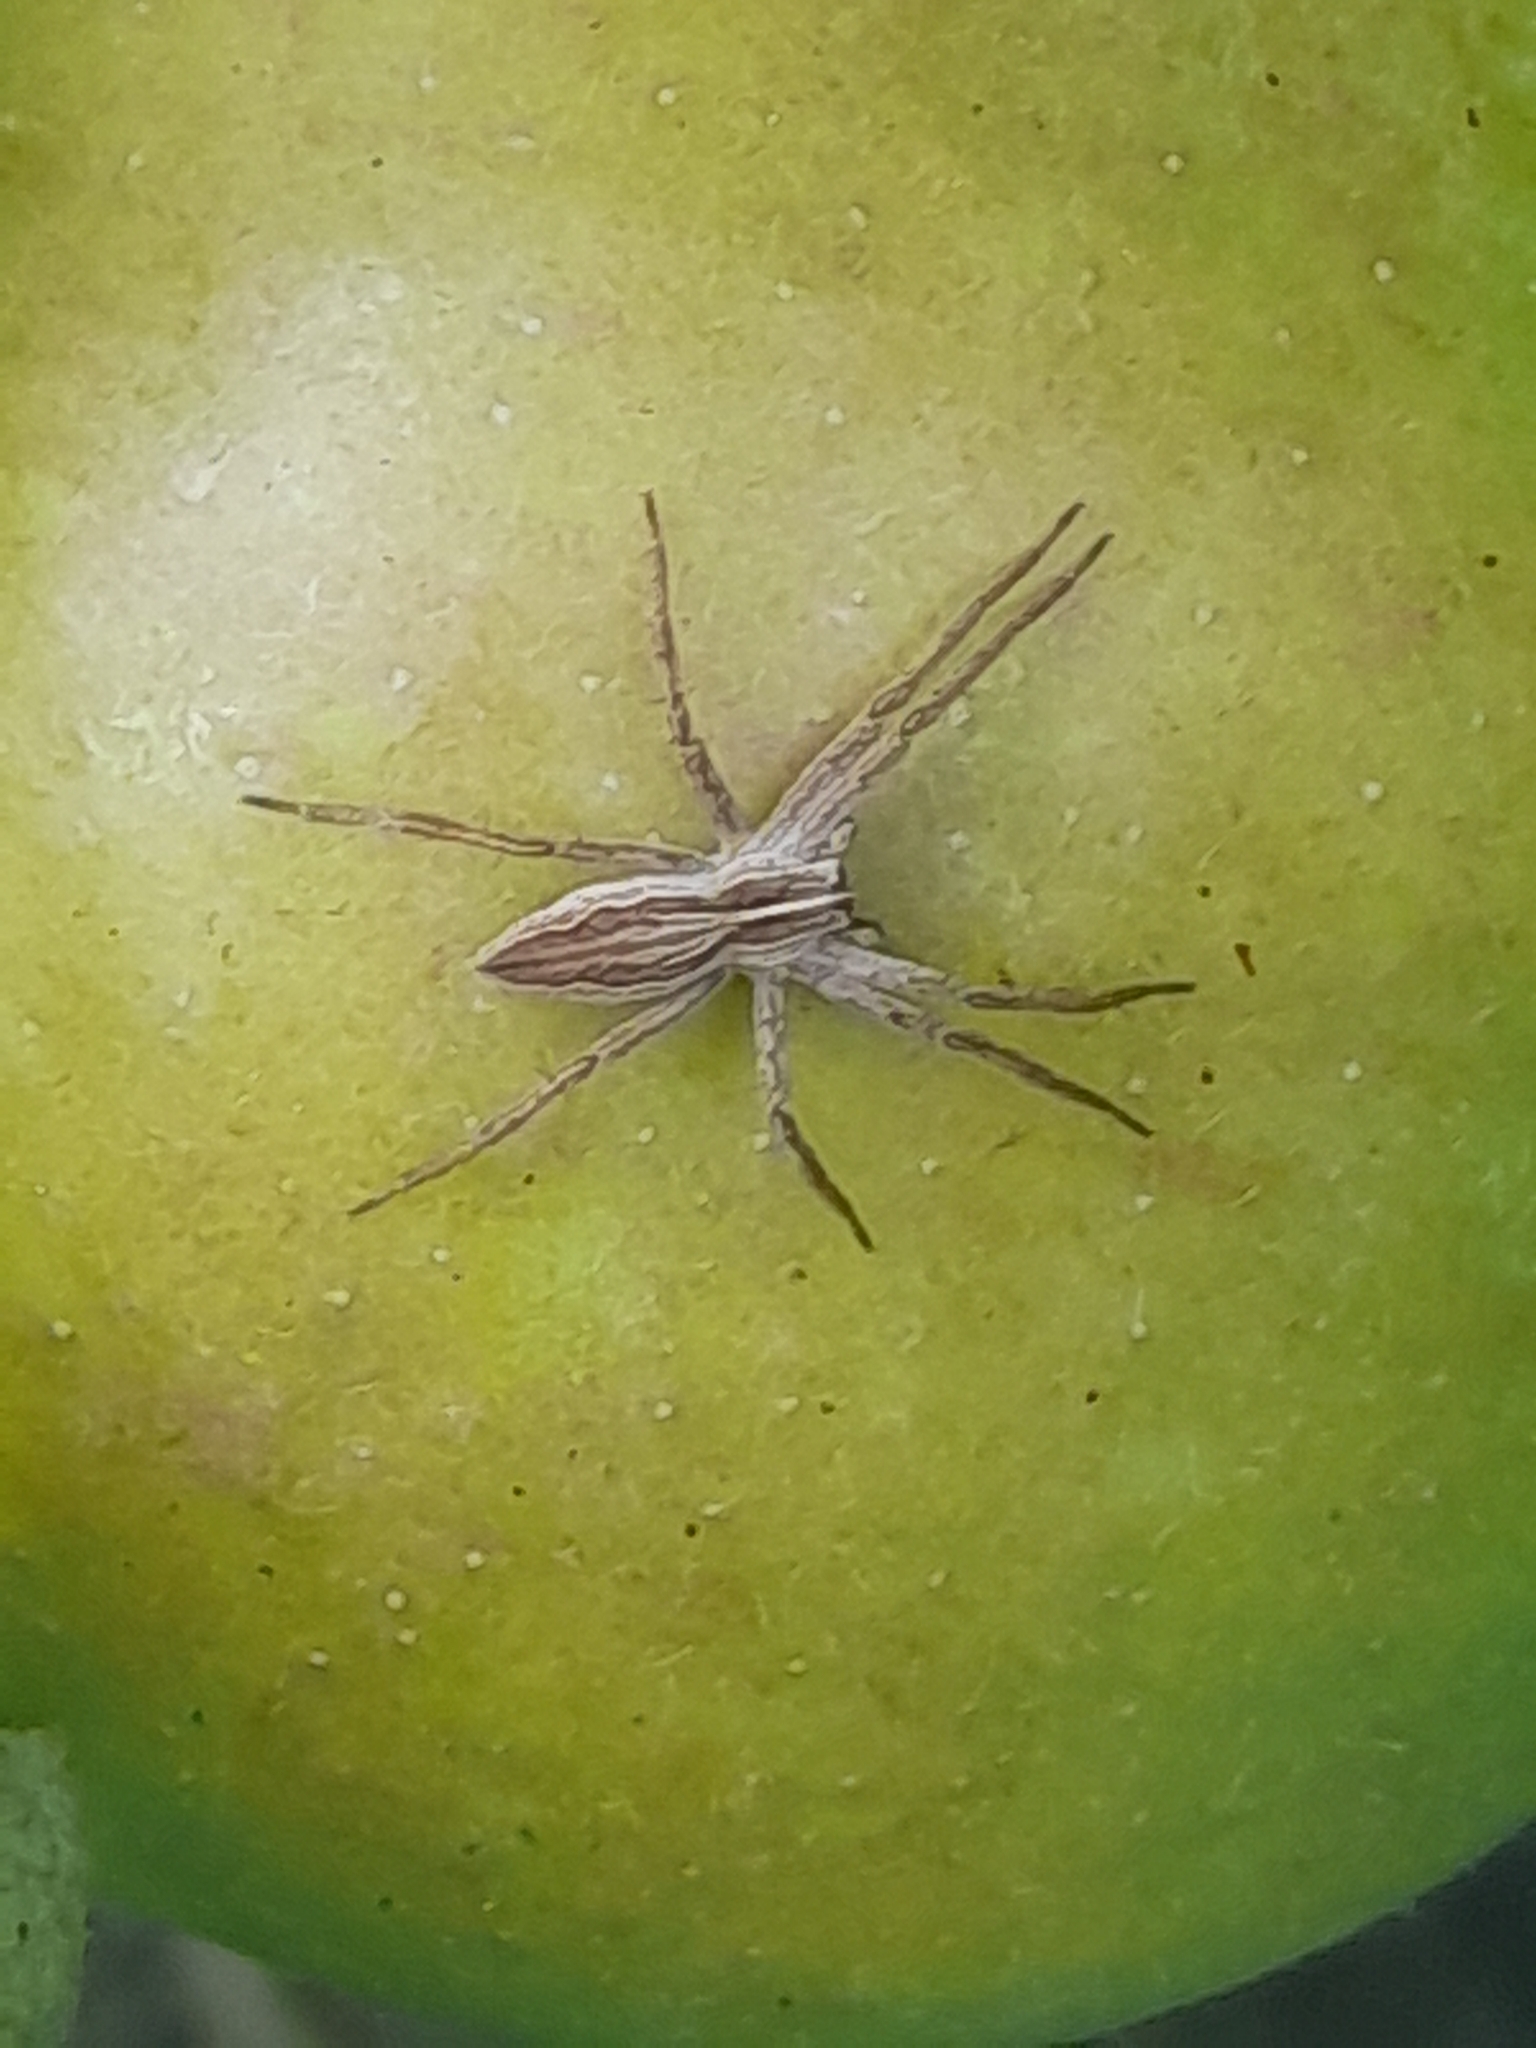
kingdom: Animalia
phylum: Arthropoda
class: Arachnida
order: Araneae
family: Pisauridae
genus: Pisaura
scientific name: Pisaura mirabilis
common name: Tent spider
